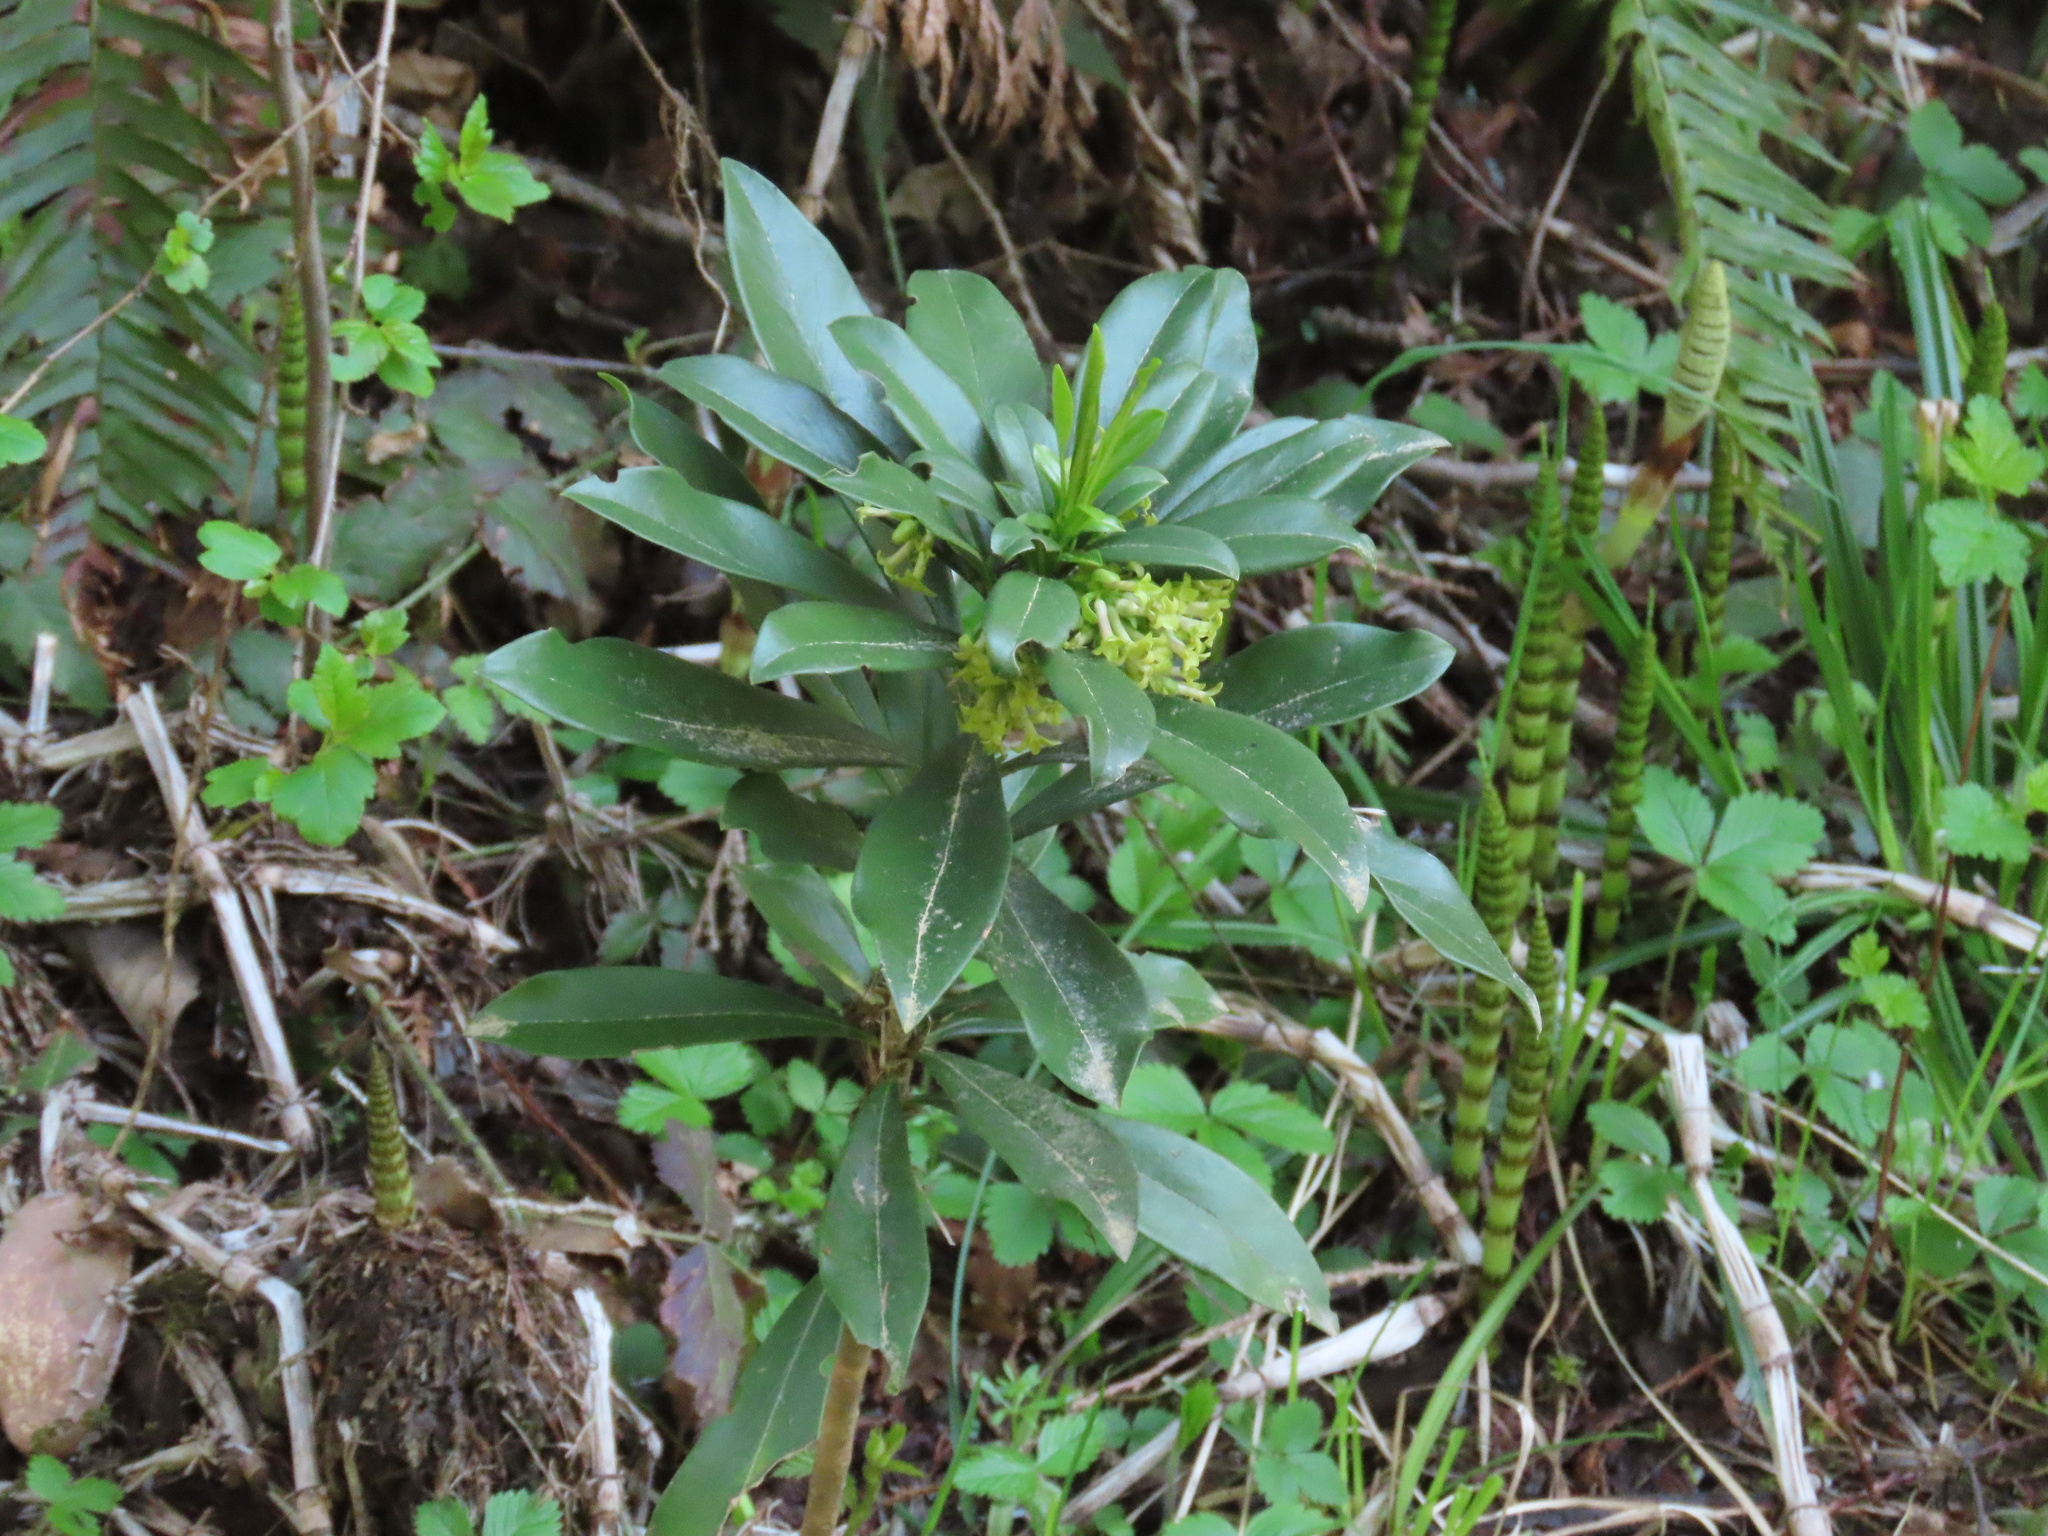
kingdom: Plantae
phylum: Tracheophyta
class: Magnoliopsida
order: Malvales
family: Thymelaeaceae
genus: Daphne
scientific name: Daphne laureola
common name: Spurge-laurel
